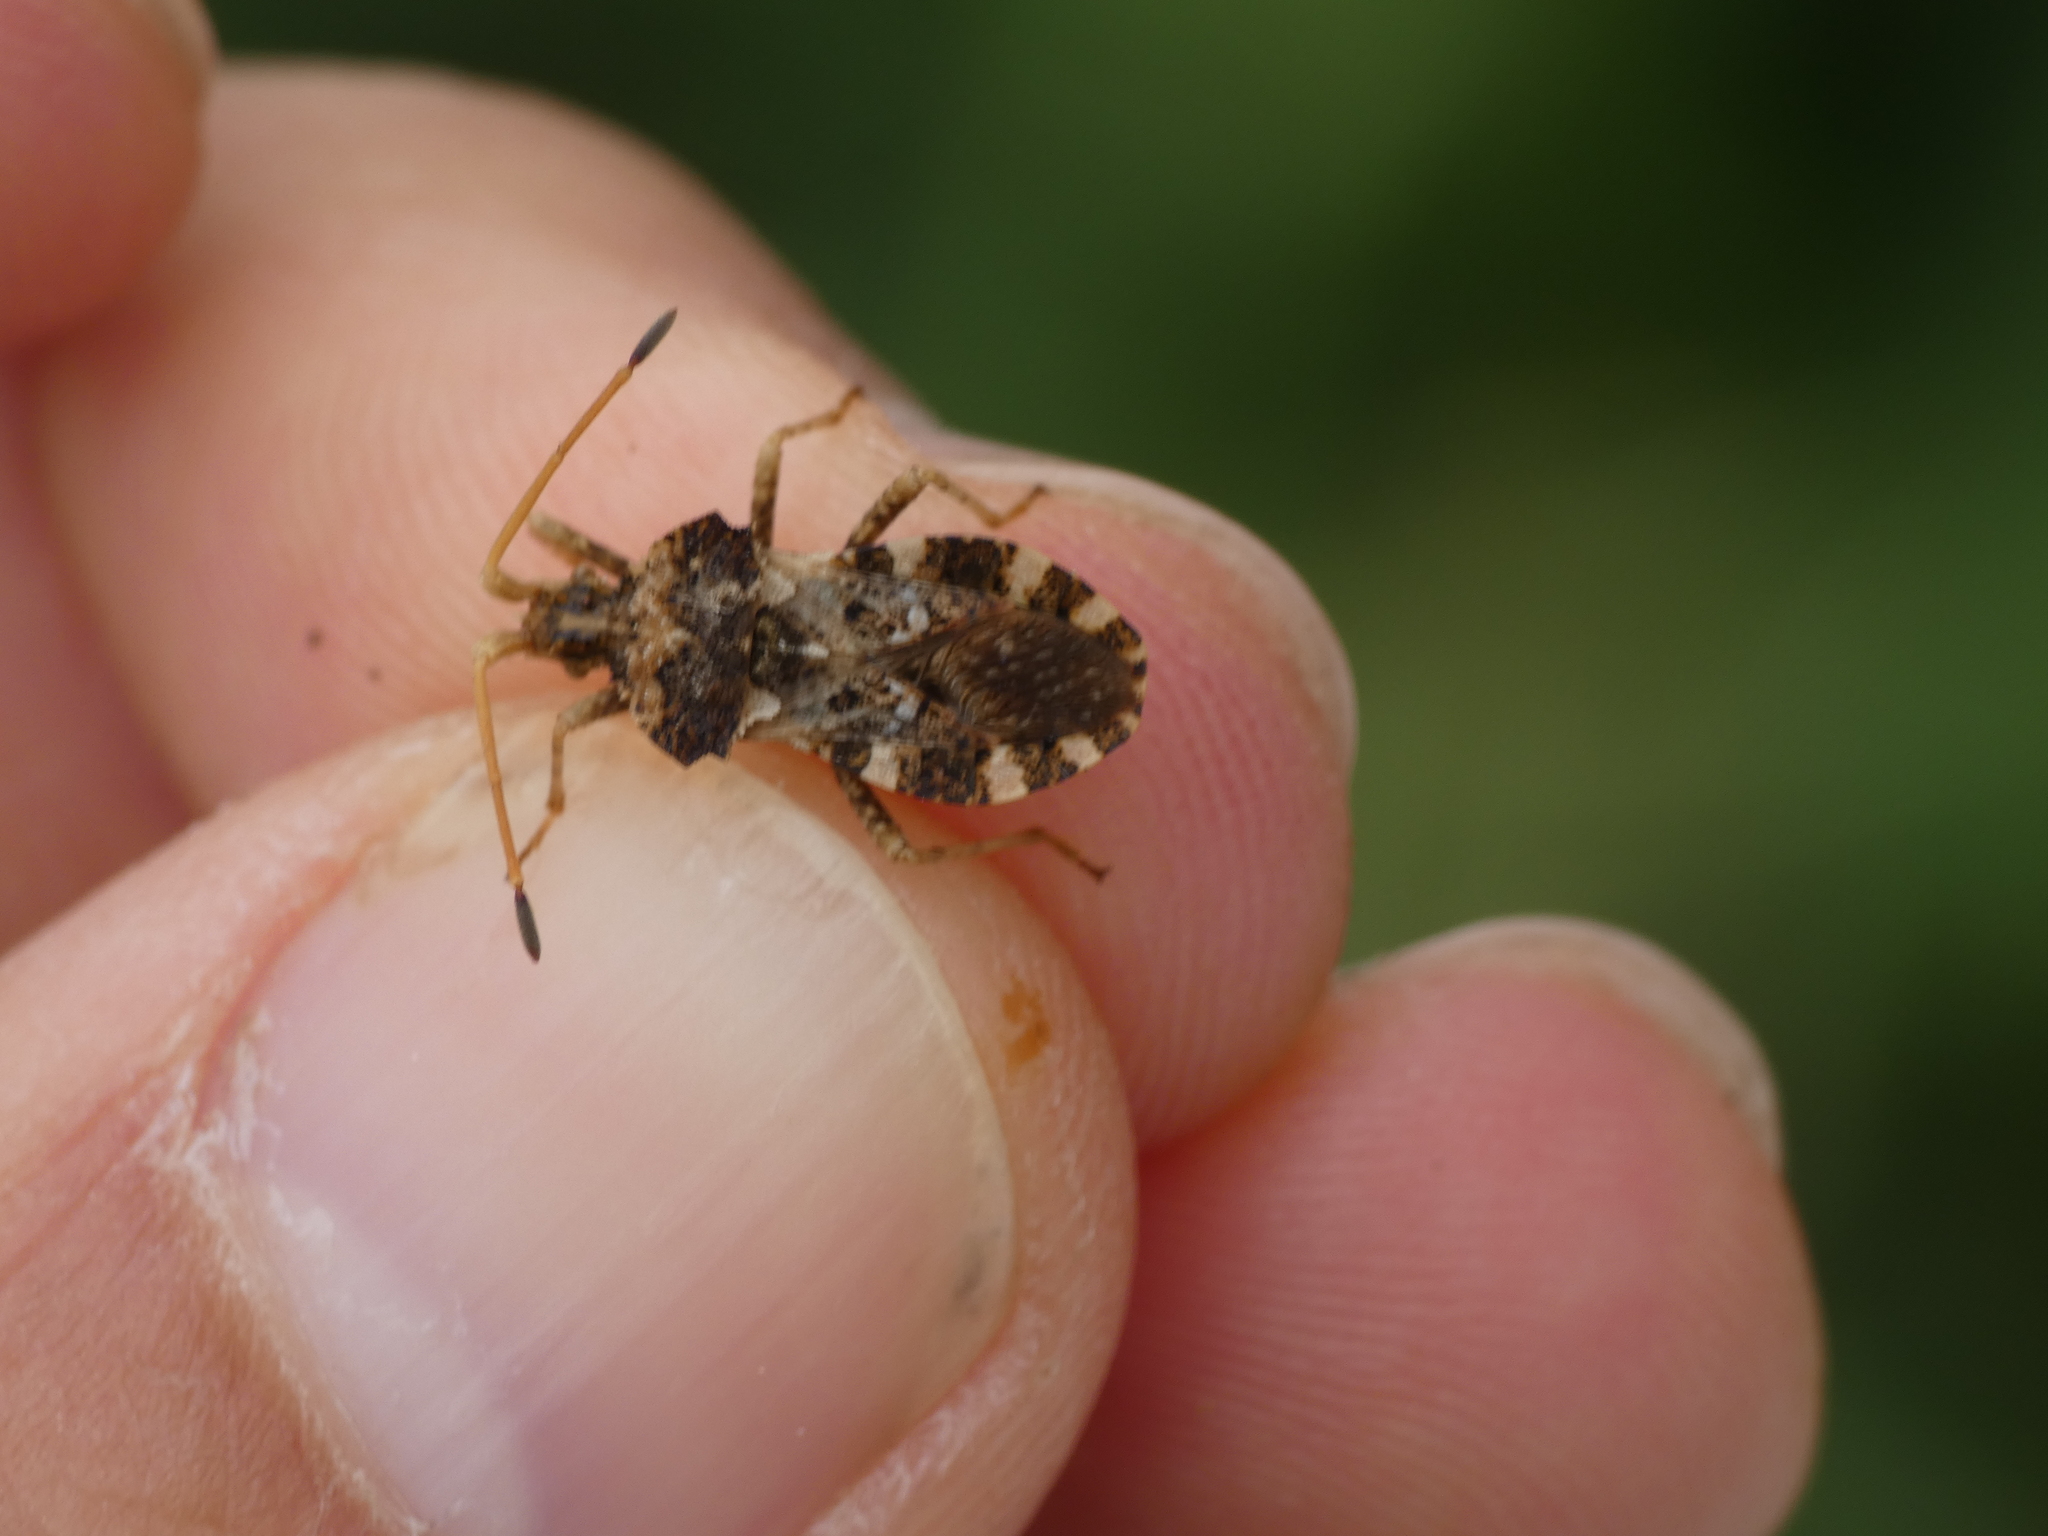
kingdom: Animalia
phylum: Arthropoda
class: Insecta
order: Hemiptera
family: Coreidae
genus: Centrocoris
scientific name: Centrocoris variegatus
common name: Leaf-footed bug
